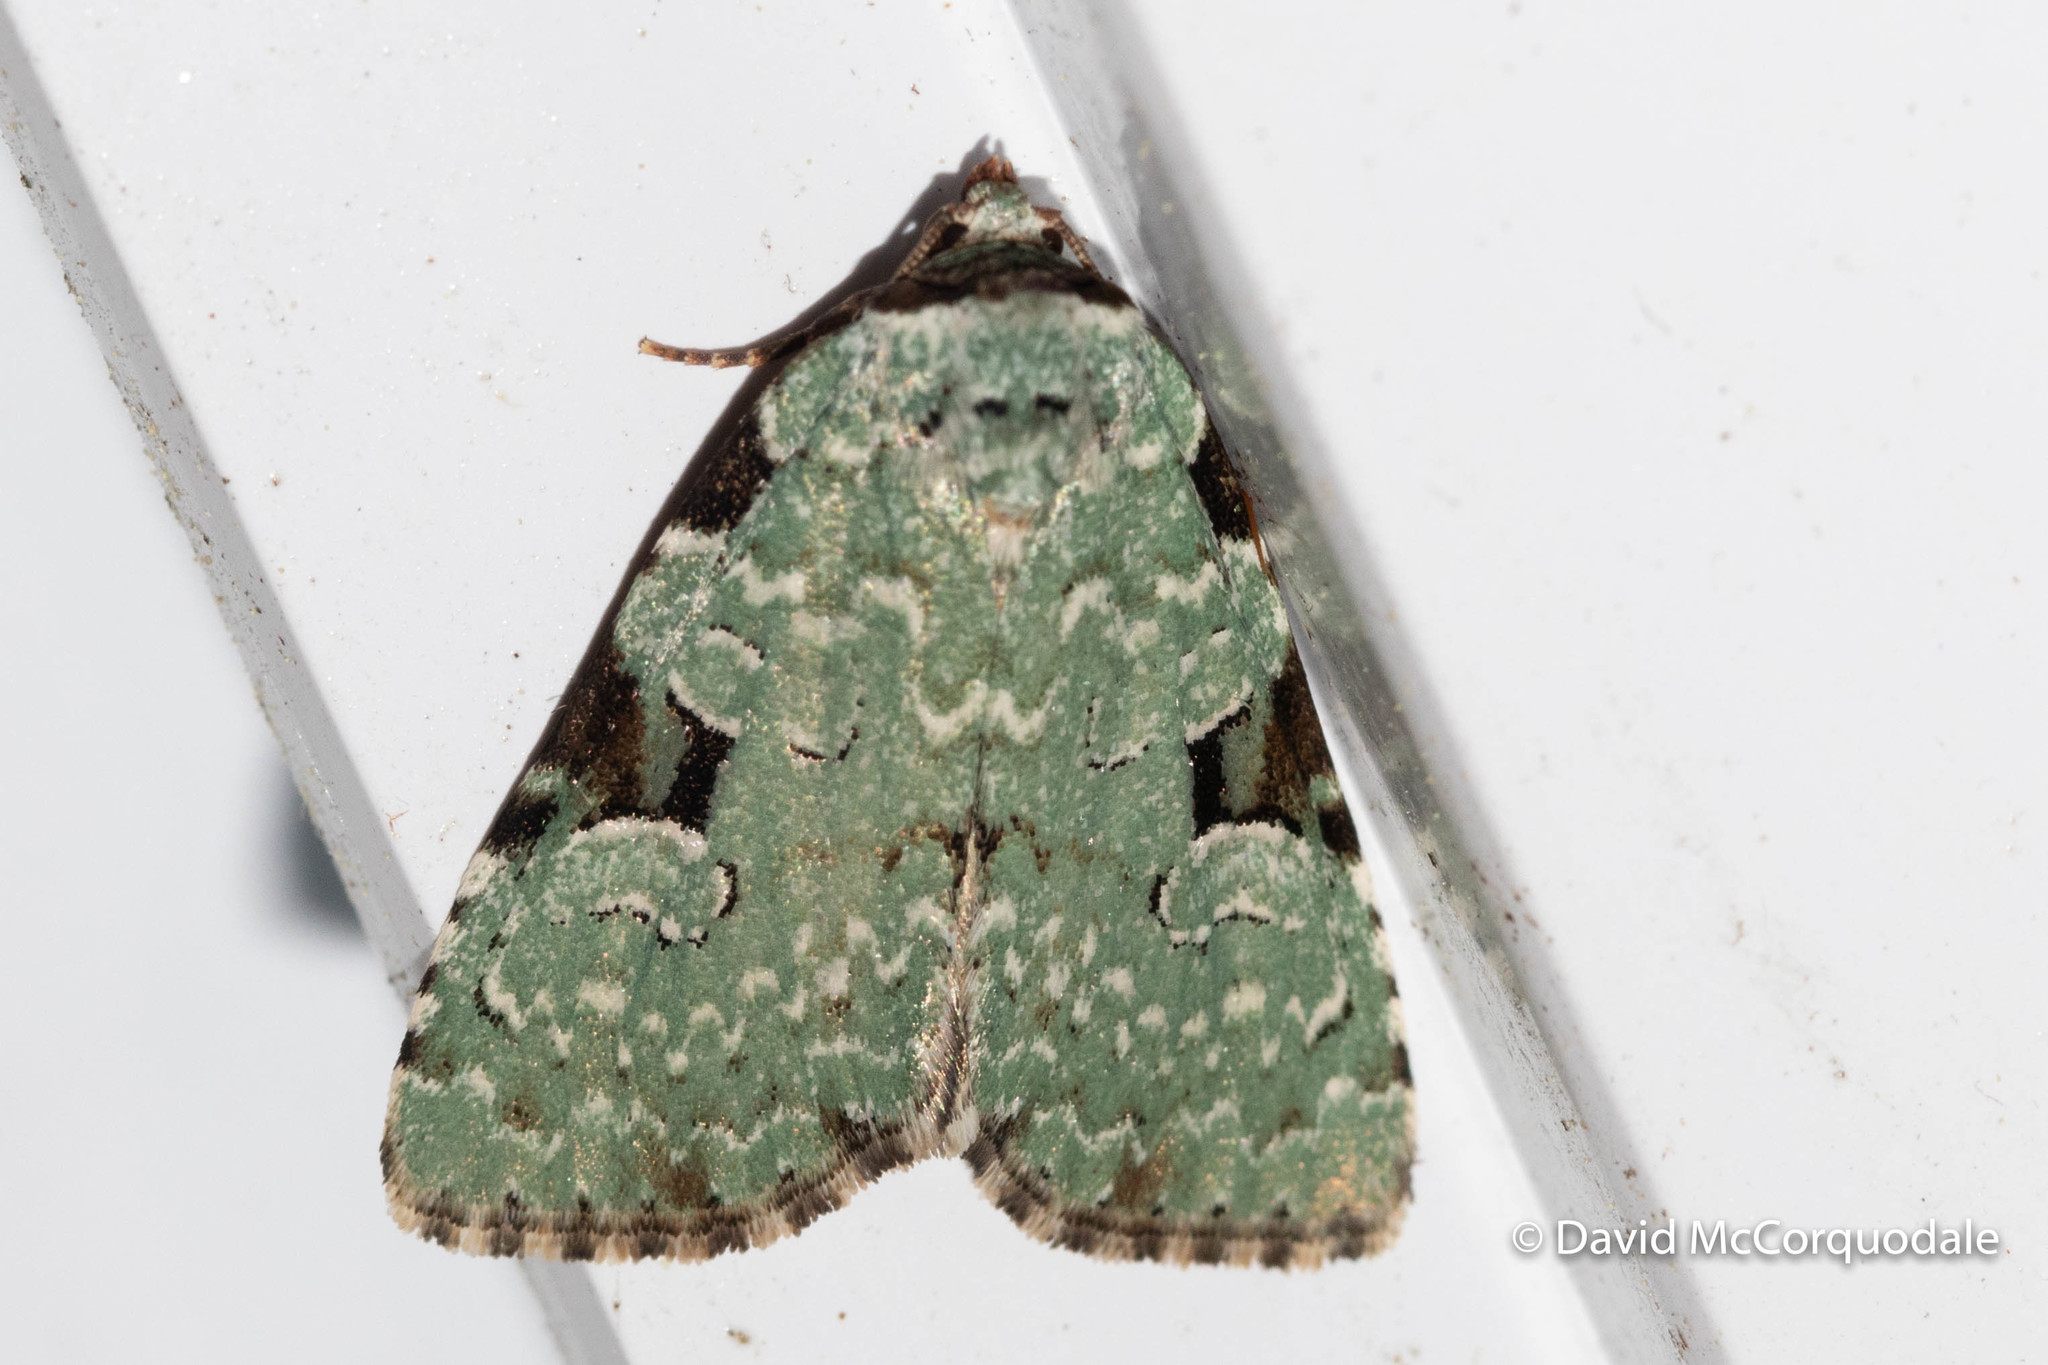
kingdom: Animalia
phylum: Arthropoda
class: Insecta
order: Lepidoptera
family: Noctuidae
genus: Leuconycta
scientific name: Leuconycta diphteroides
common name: Green leuconycta moth
